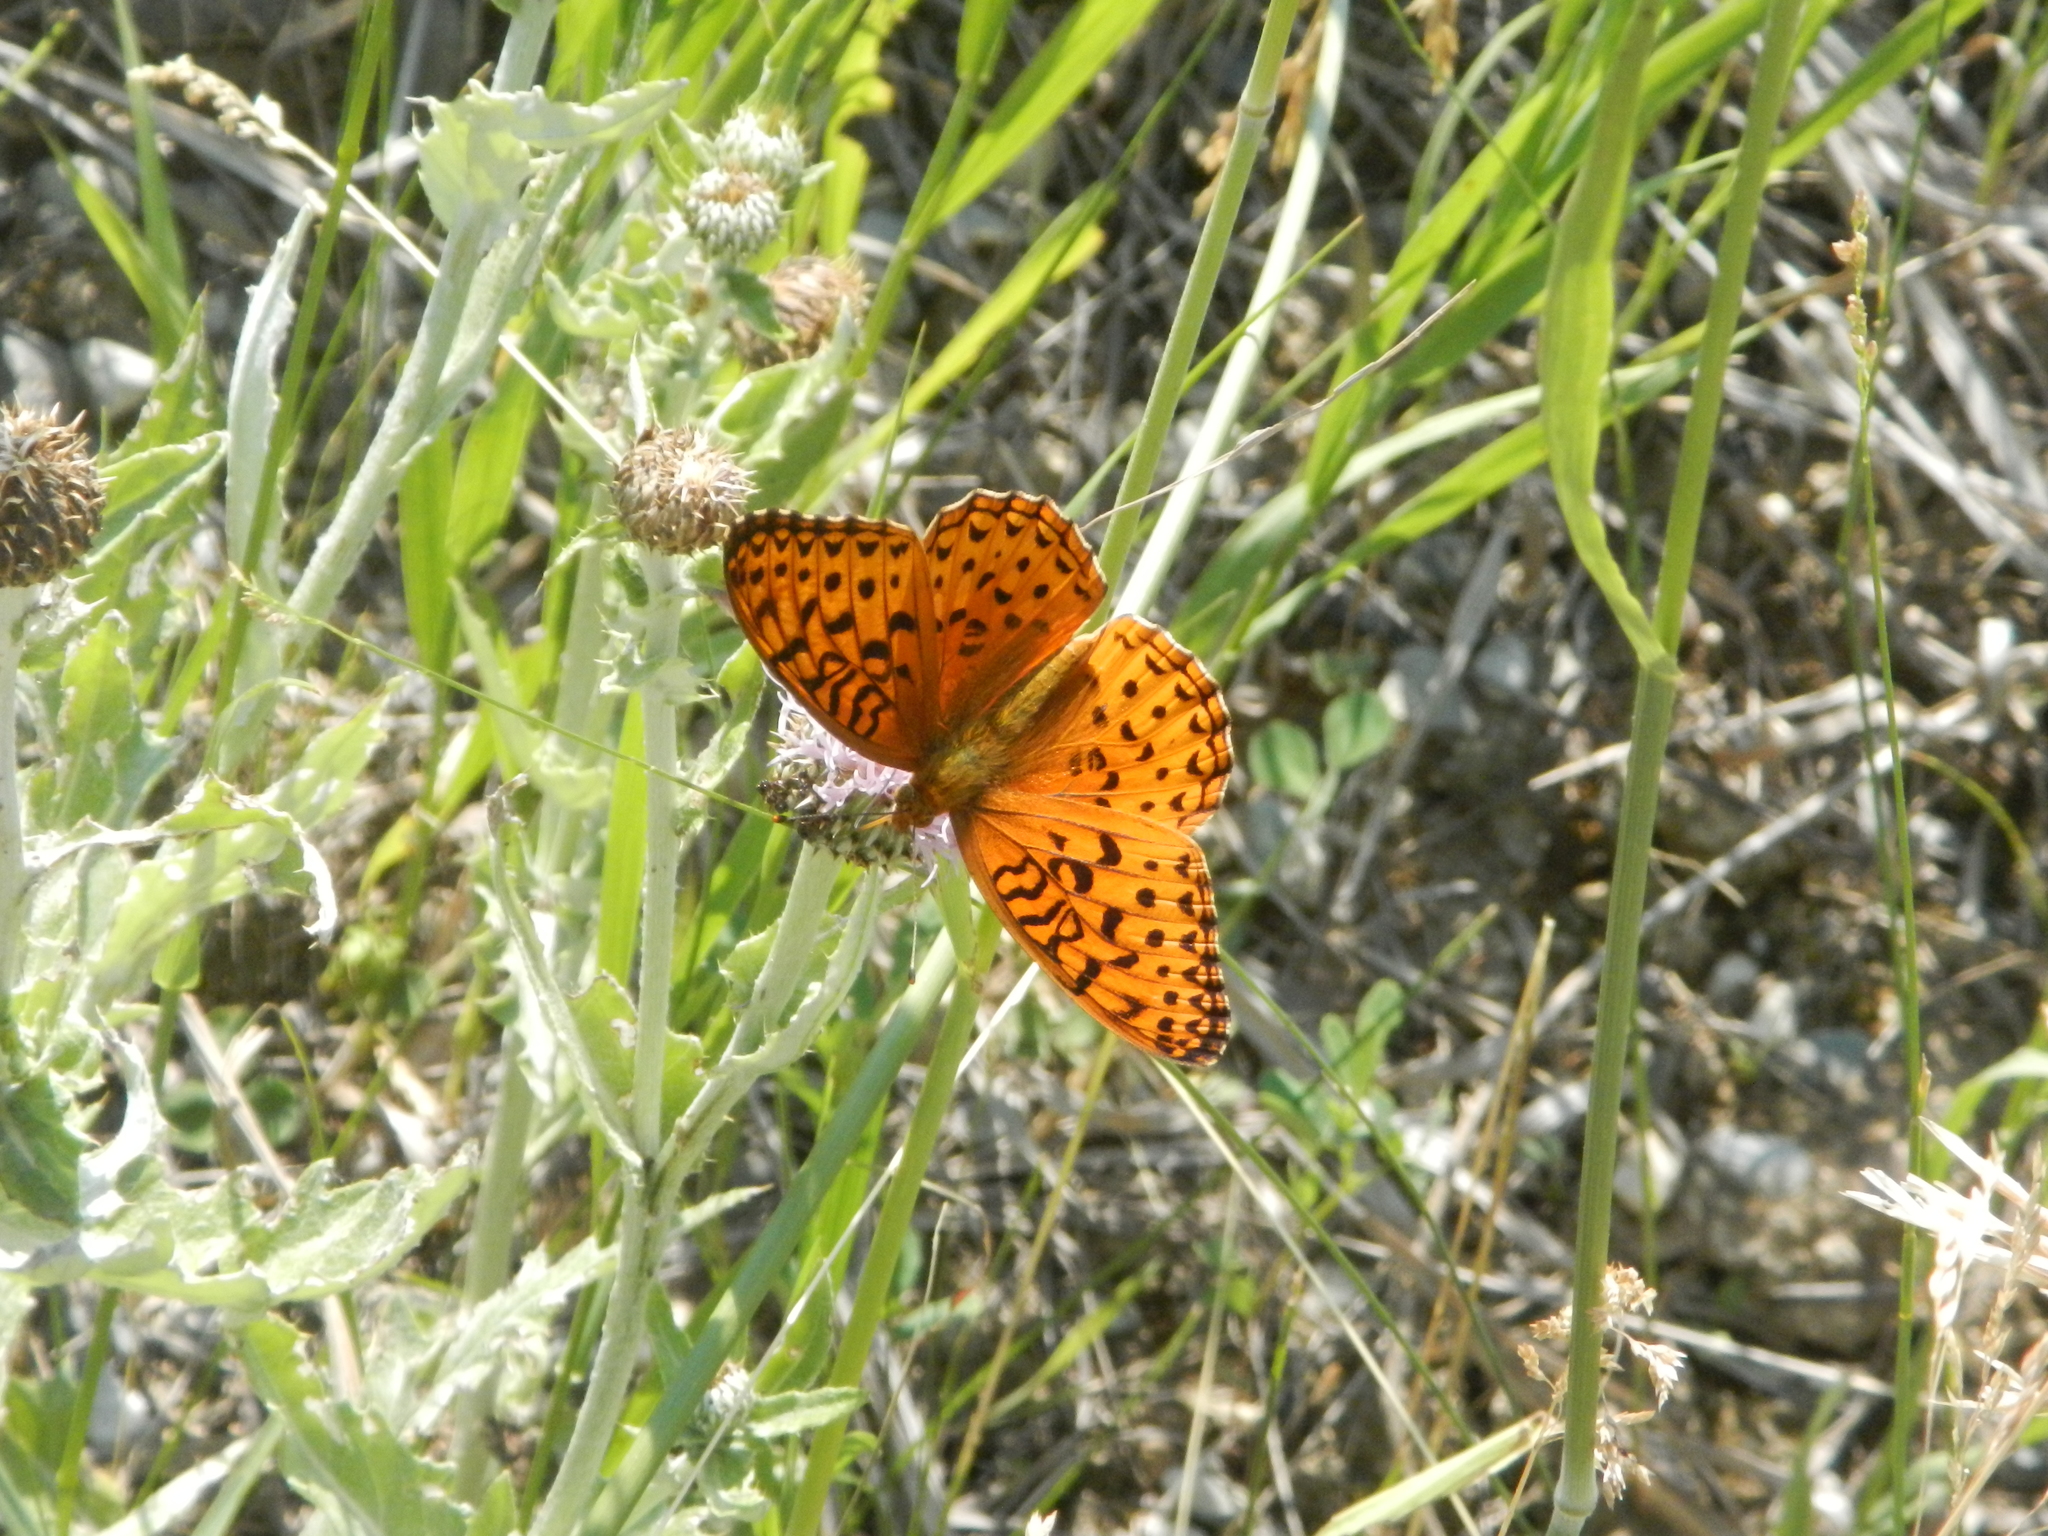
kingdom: Animalia
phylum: Arthropoda
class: Insecta
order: Lepidoptera
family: Nymphalidae
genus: Speyeria
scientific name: Speyeria aphrodite
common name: Aphrodite friitllary
